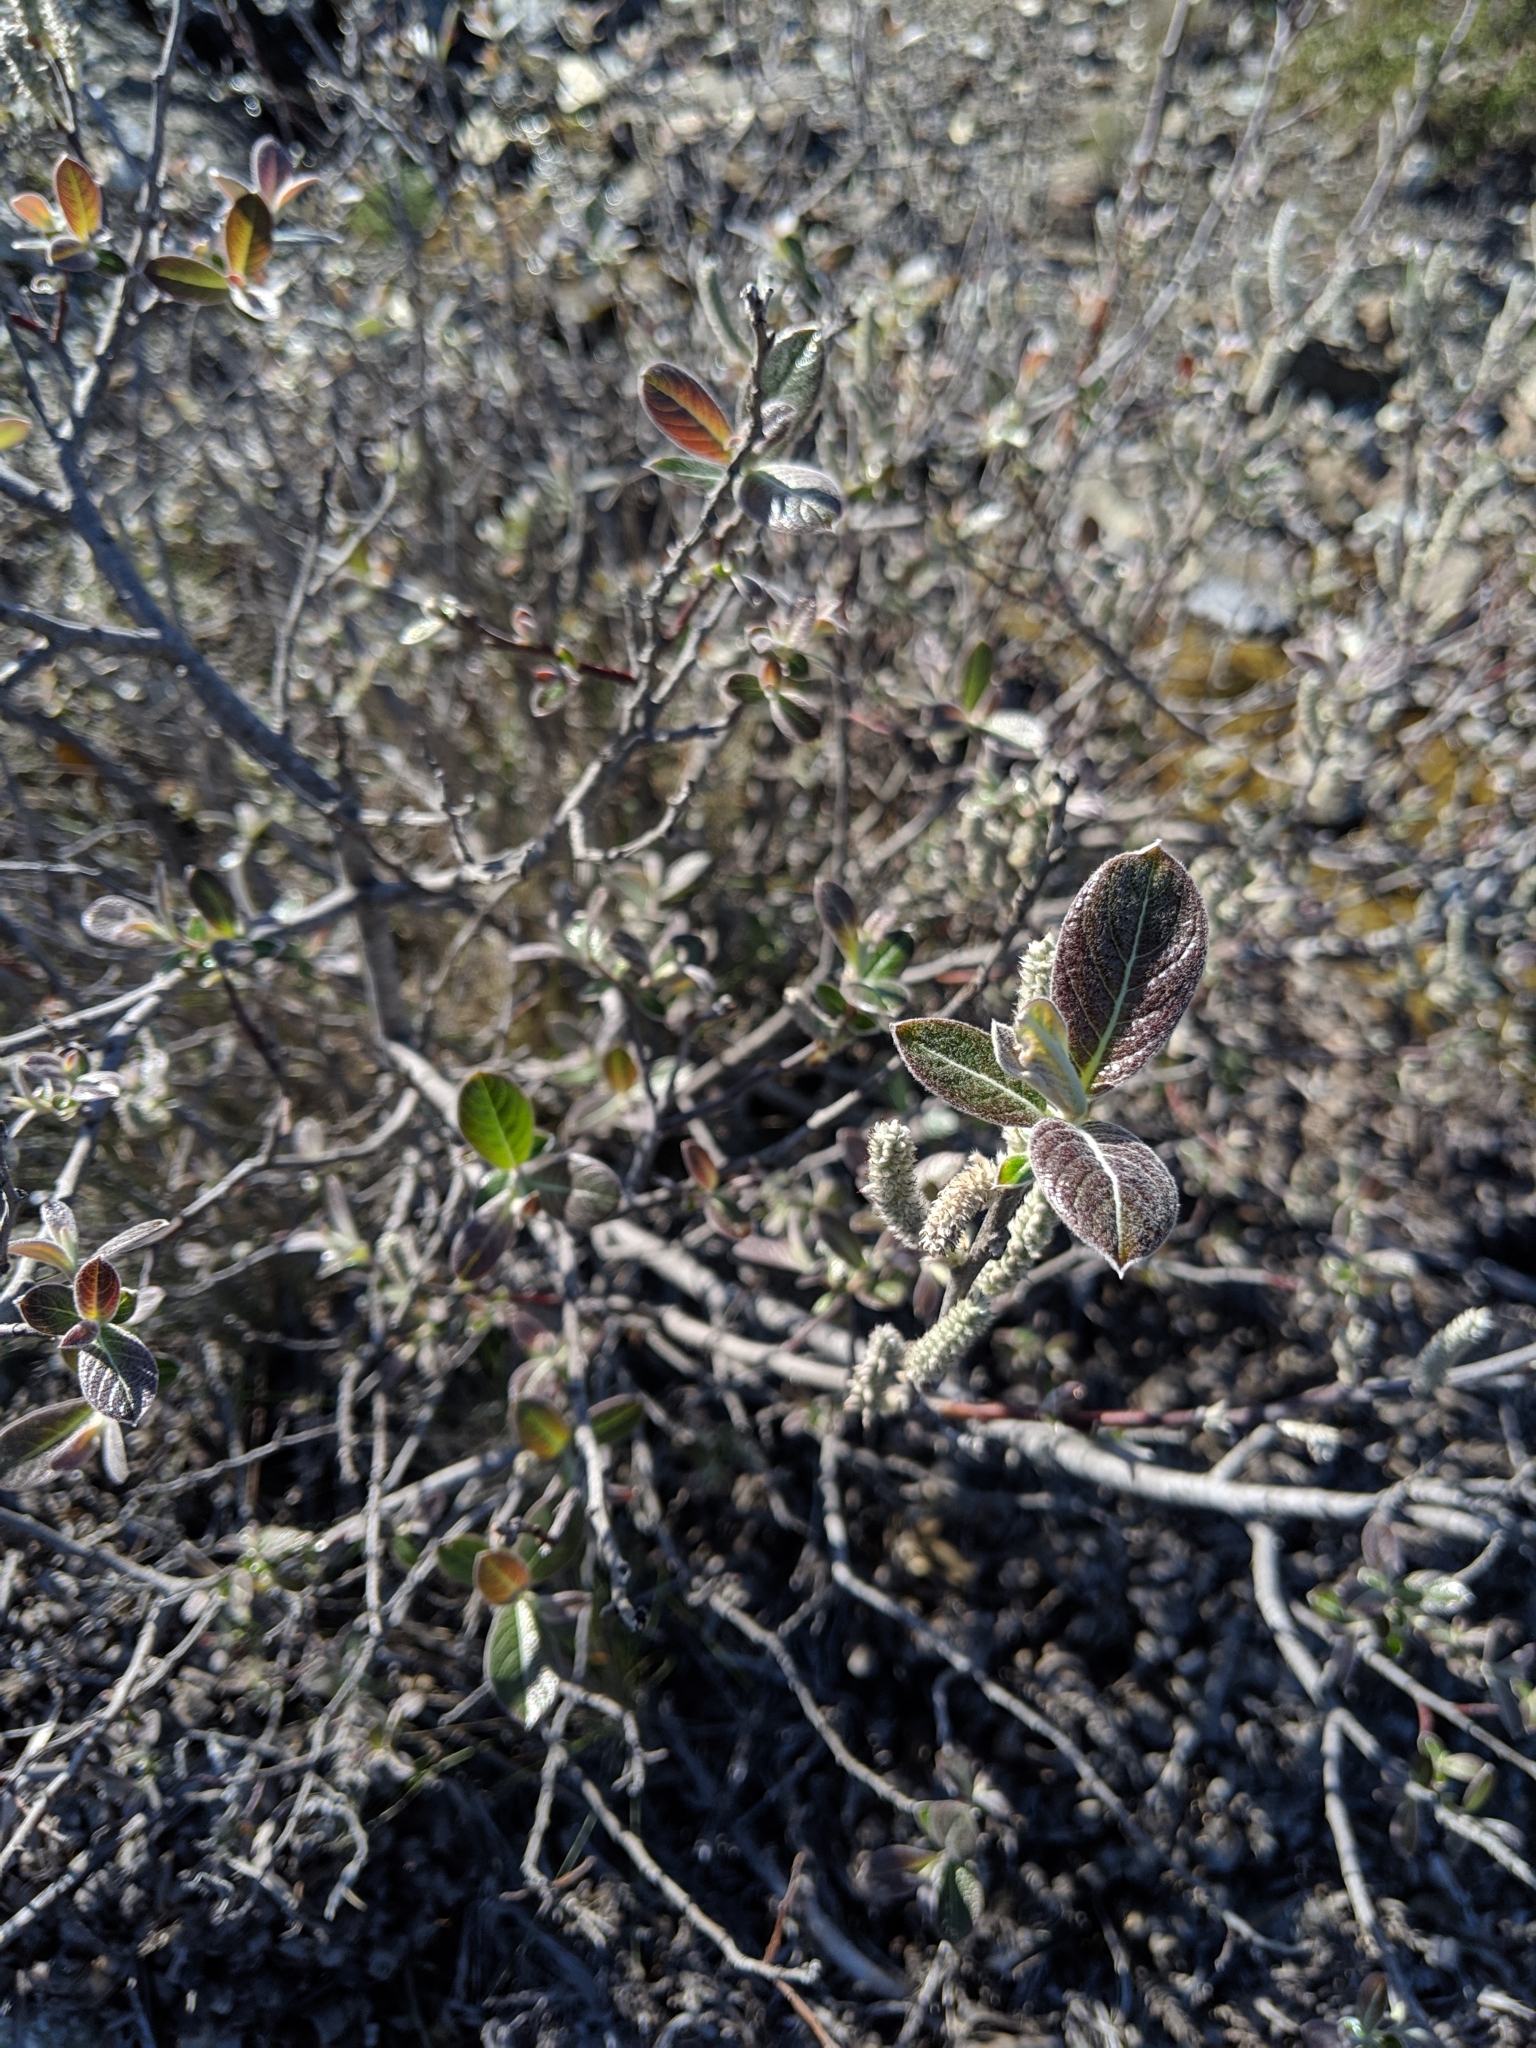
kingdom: Plantae
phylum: Tracheophyta
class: Magnoliopsida
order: Malpighiales
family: Salicaceae
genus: Salix
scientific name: Salix breweri
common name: Brewer’s willow
